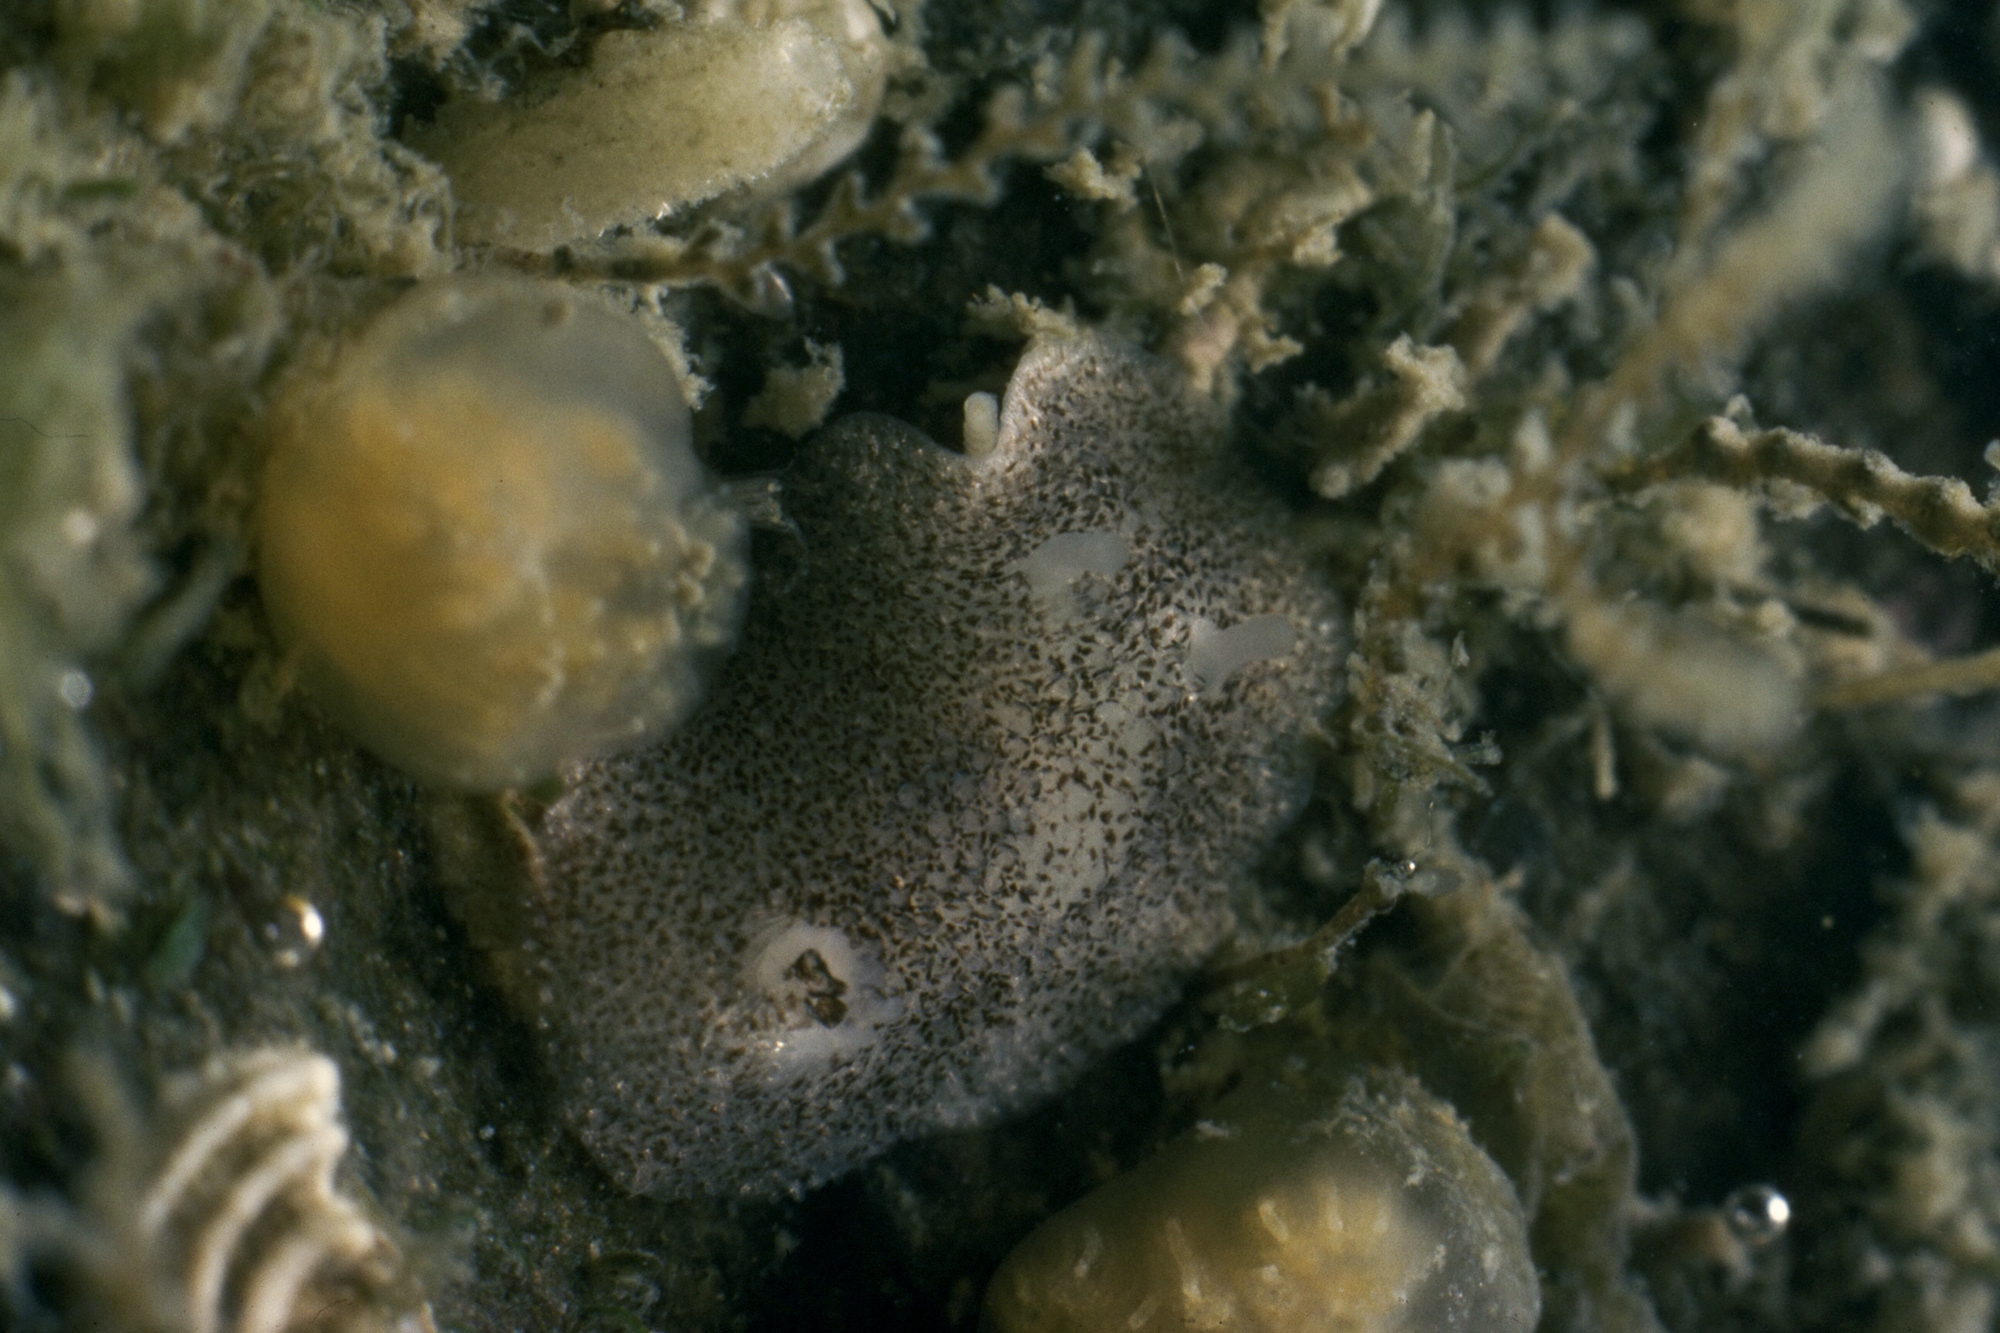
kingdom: Animalia
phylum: Mollusca
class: Gastropoda
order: Nudibranchia
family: Onchidorididae
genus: Atalodoris
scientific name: Atalodoris pusilla
